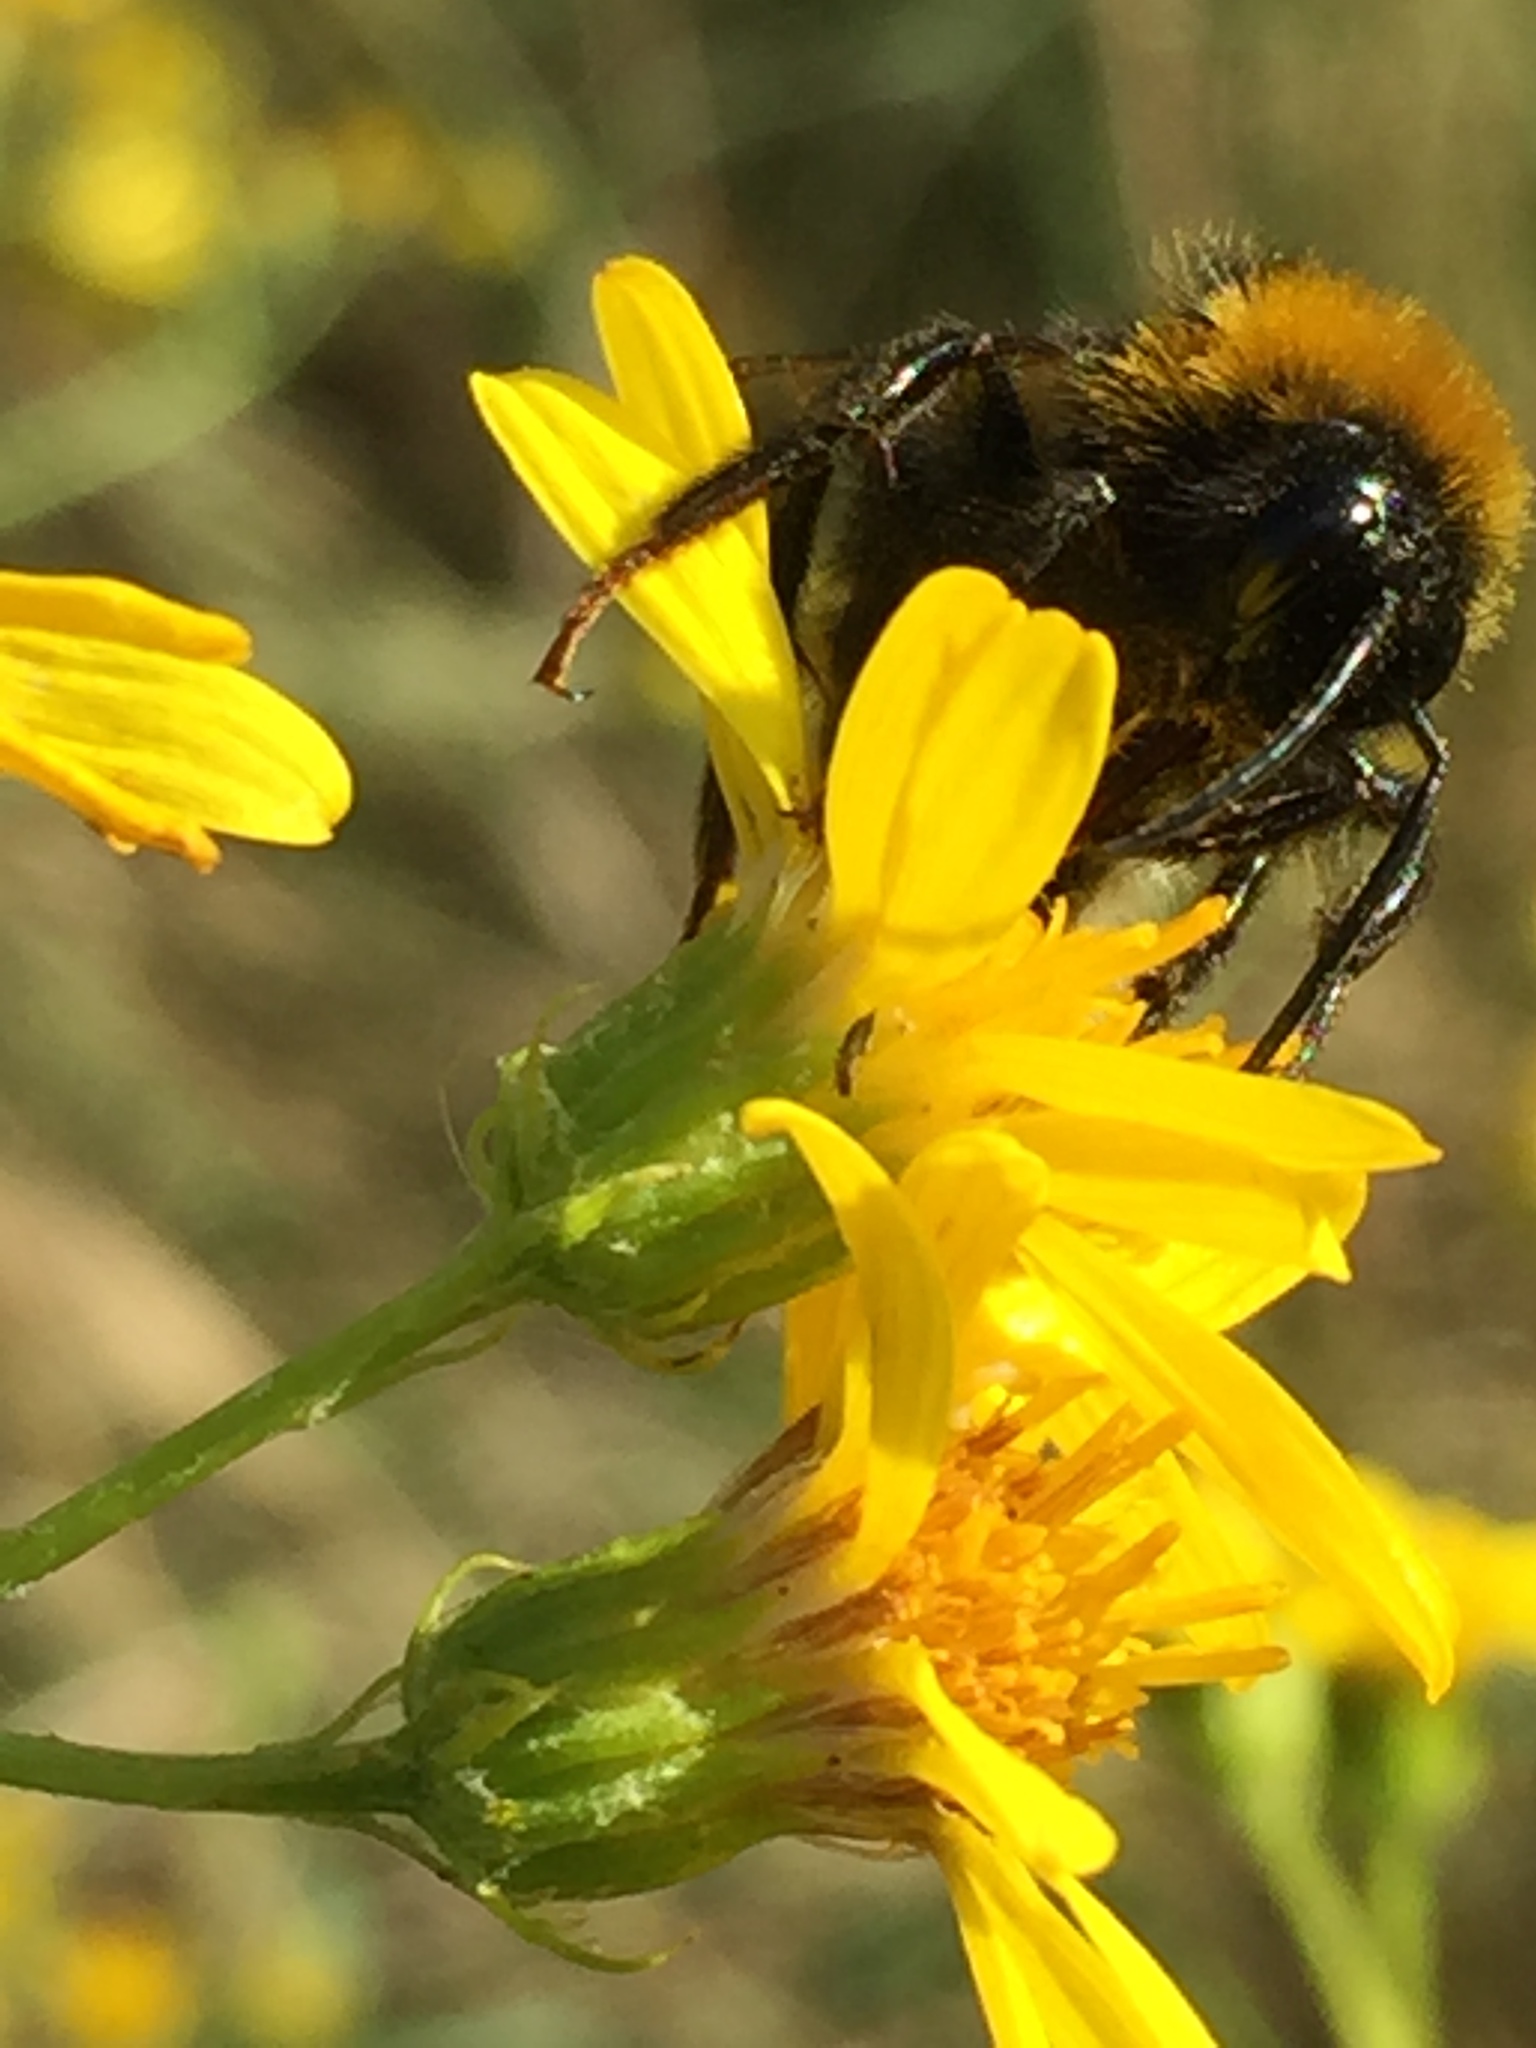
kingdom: Animalia
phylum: Arthropoda
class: Insecta
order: Hymenoptera
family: Apidae
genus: Bombus
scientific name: Bombus
